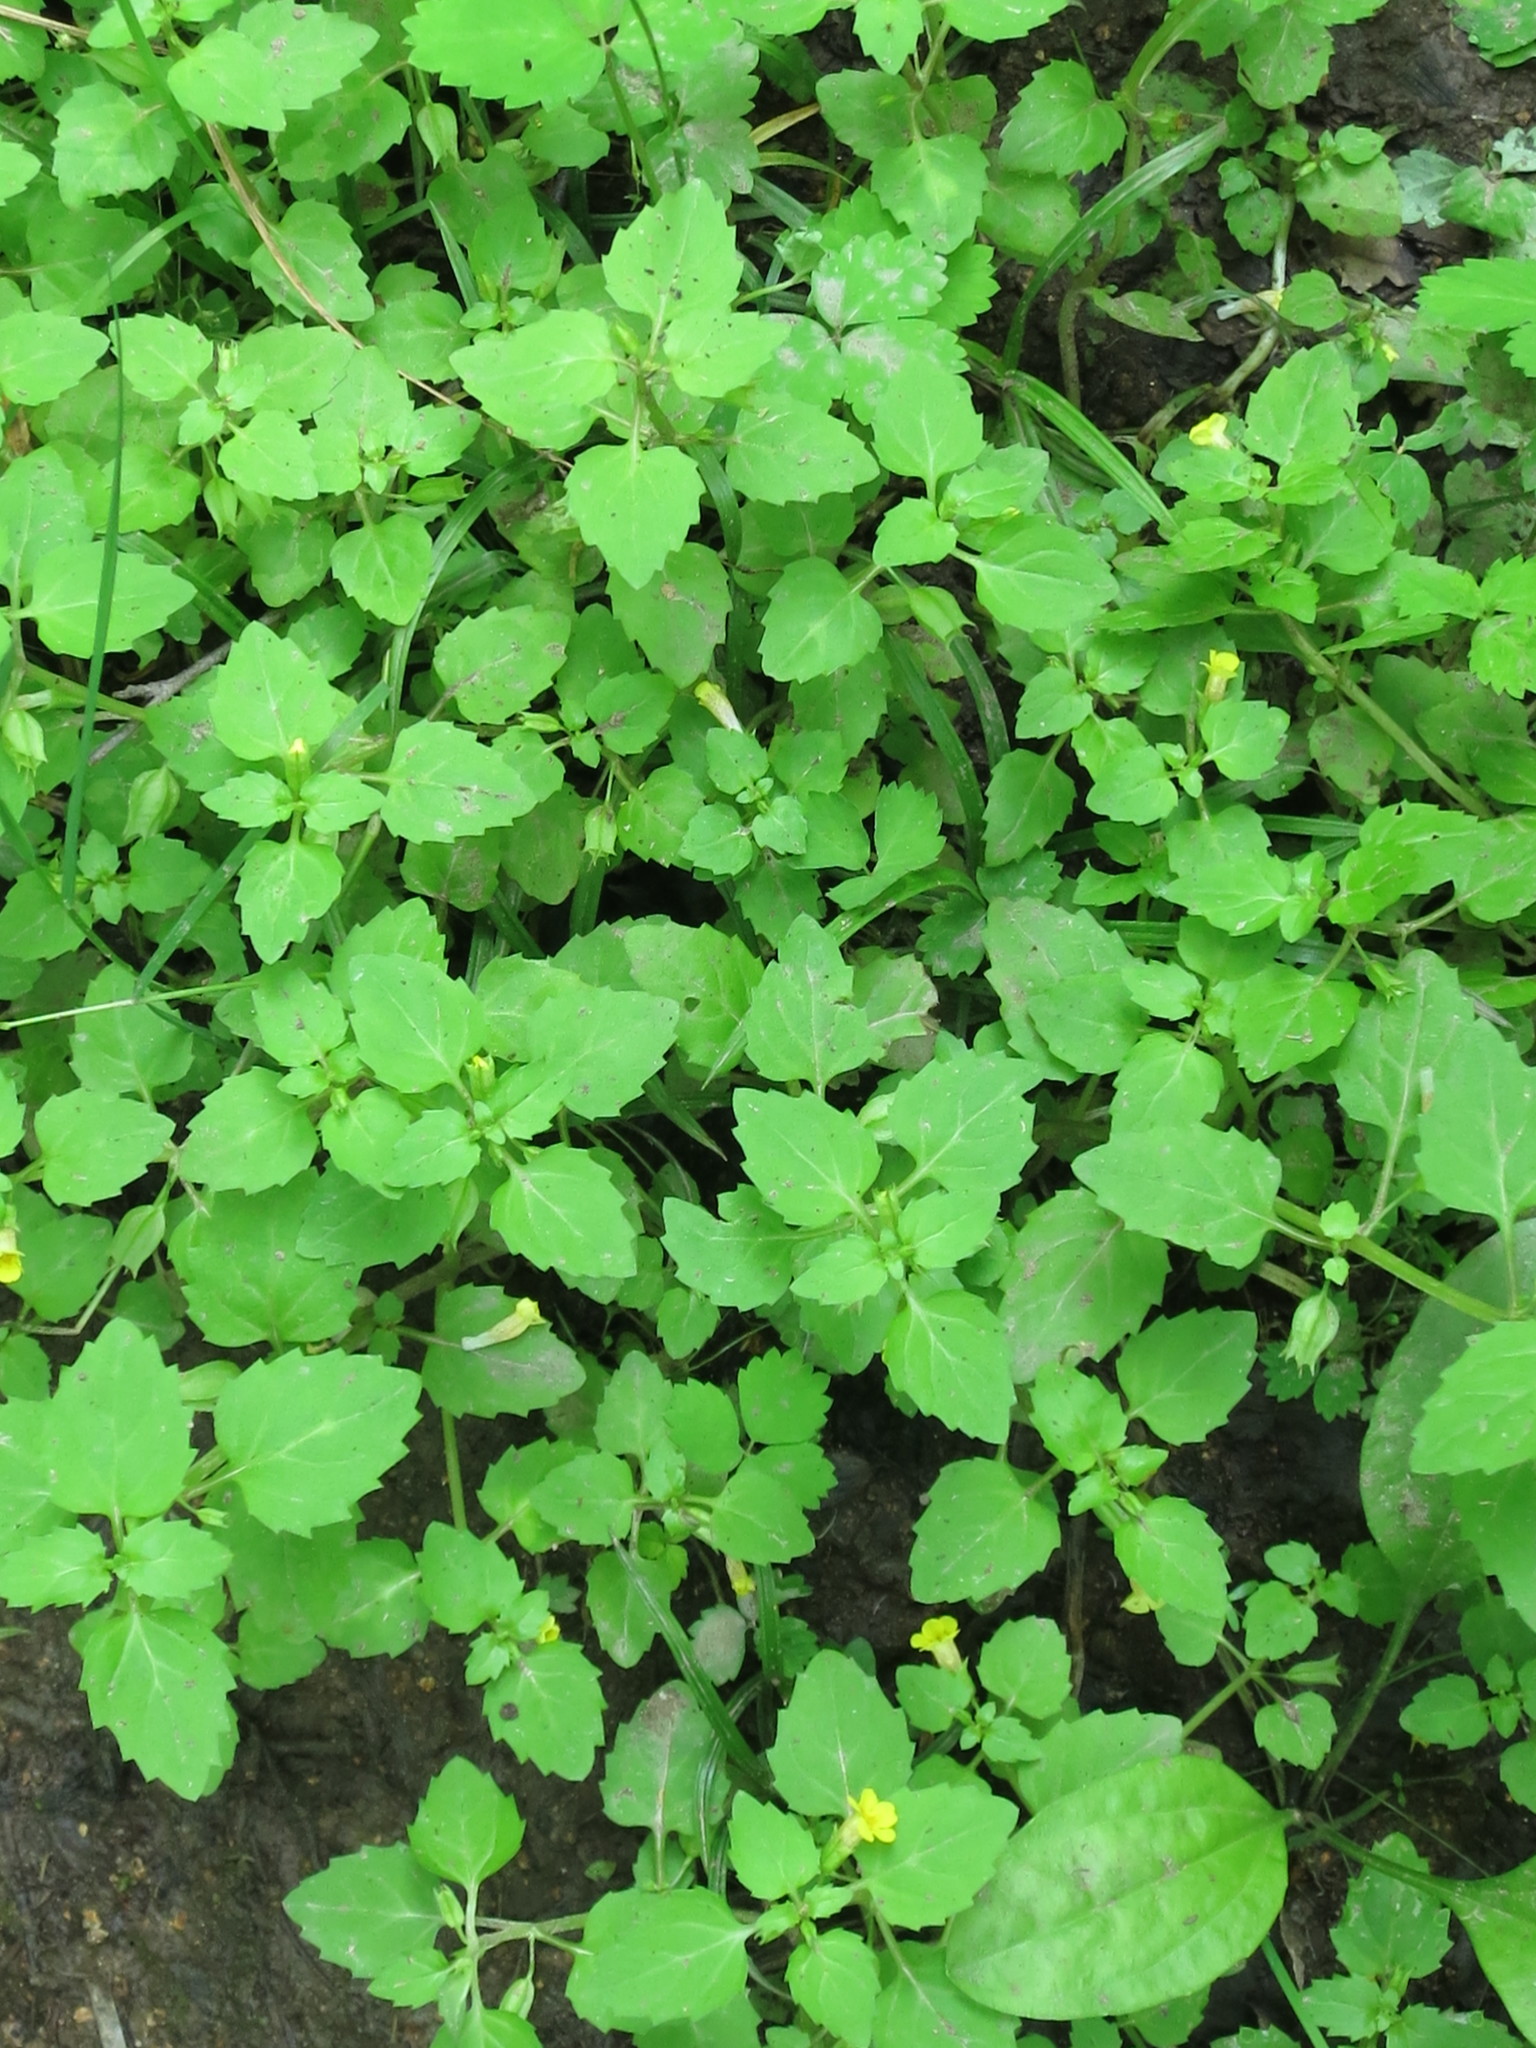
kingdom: Plantae
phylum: Tracheophyta
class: Magnoliopsida
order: Lamiales
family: Phrymaceae
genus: Erythranthe
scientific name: Erythranthe tenella
